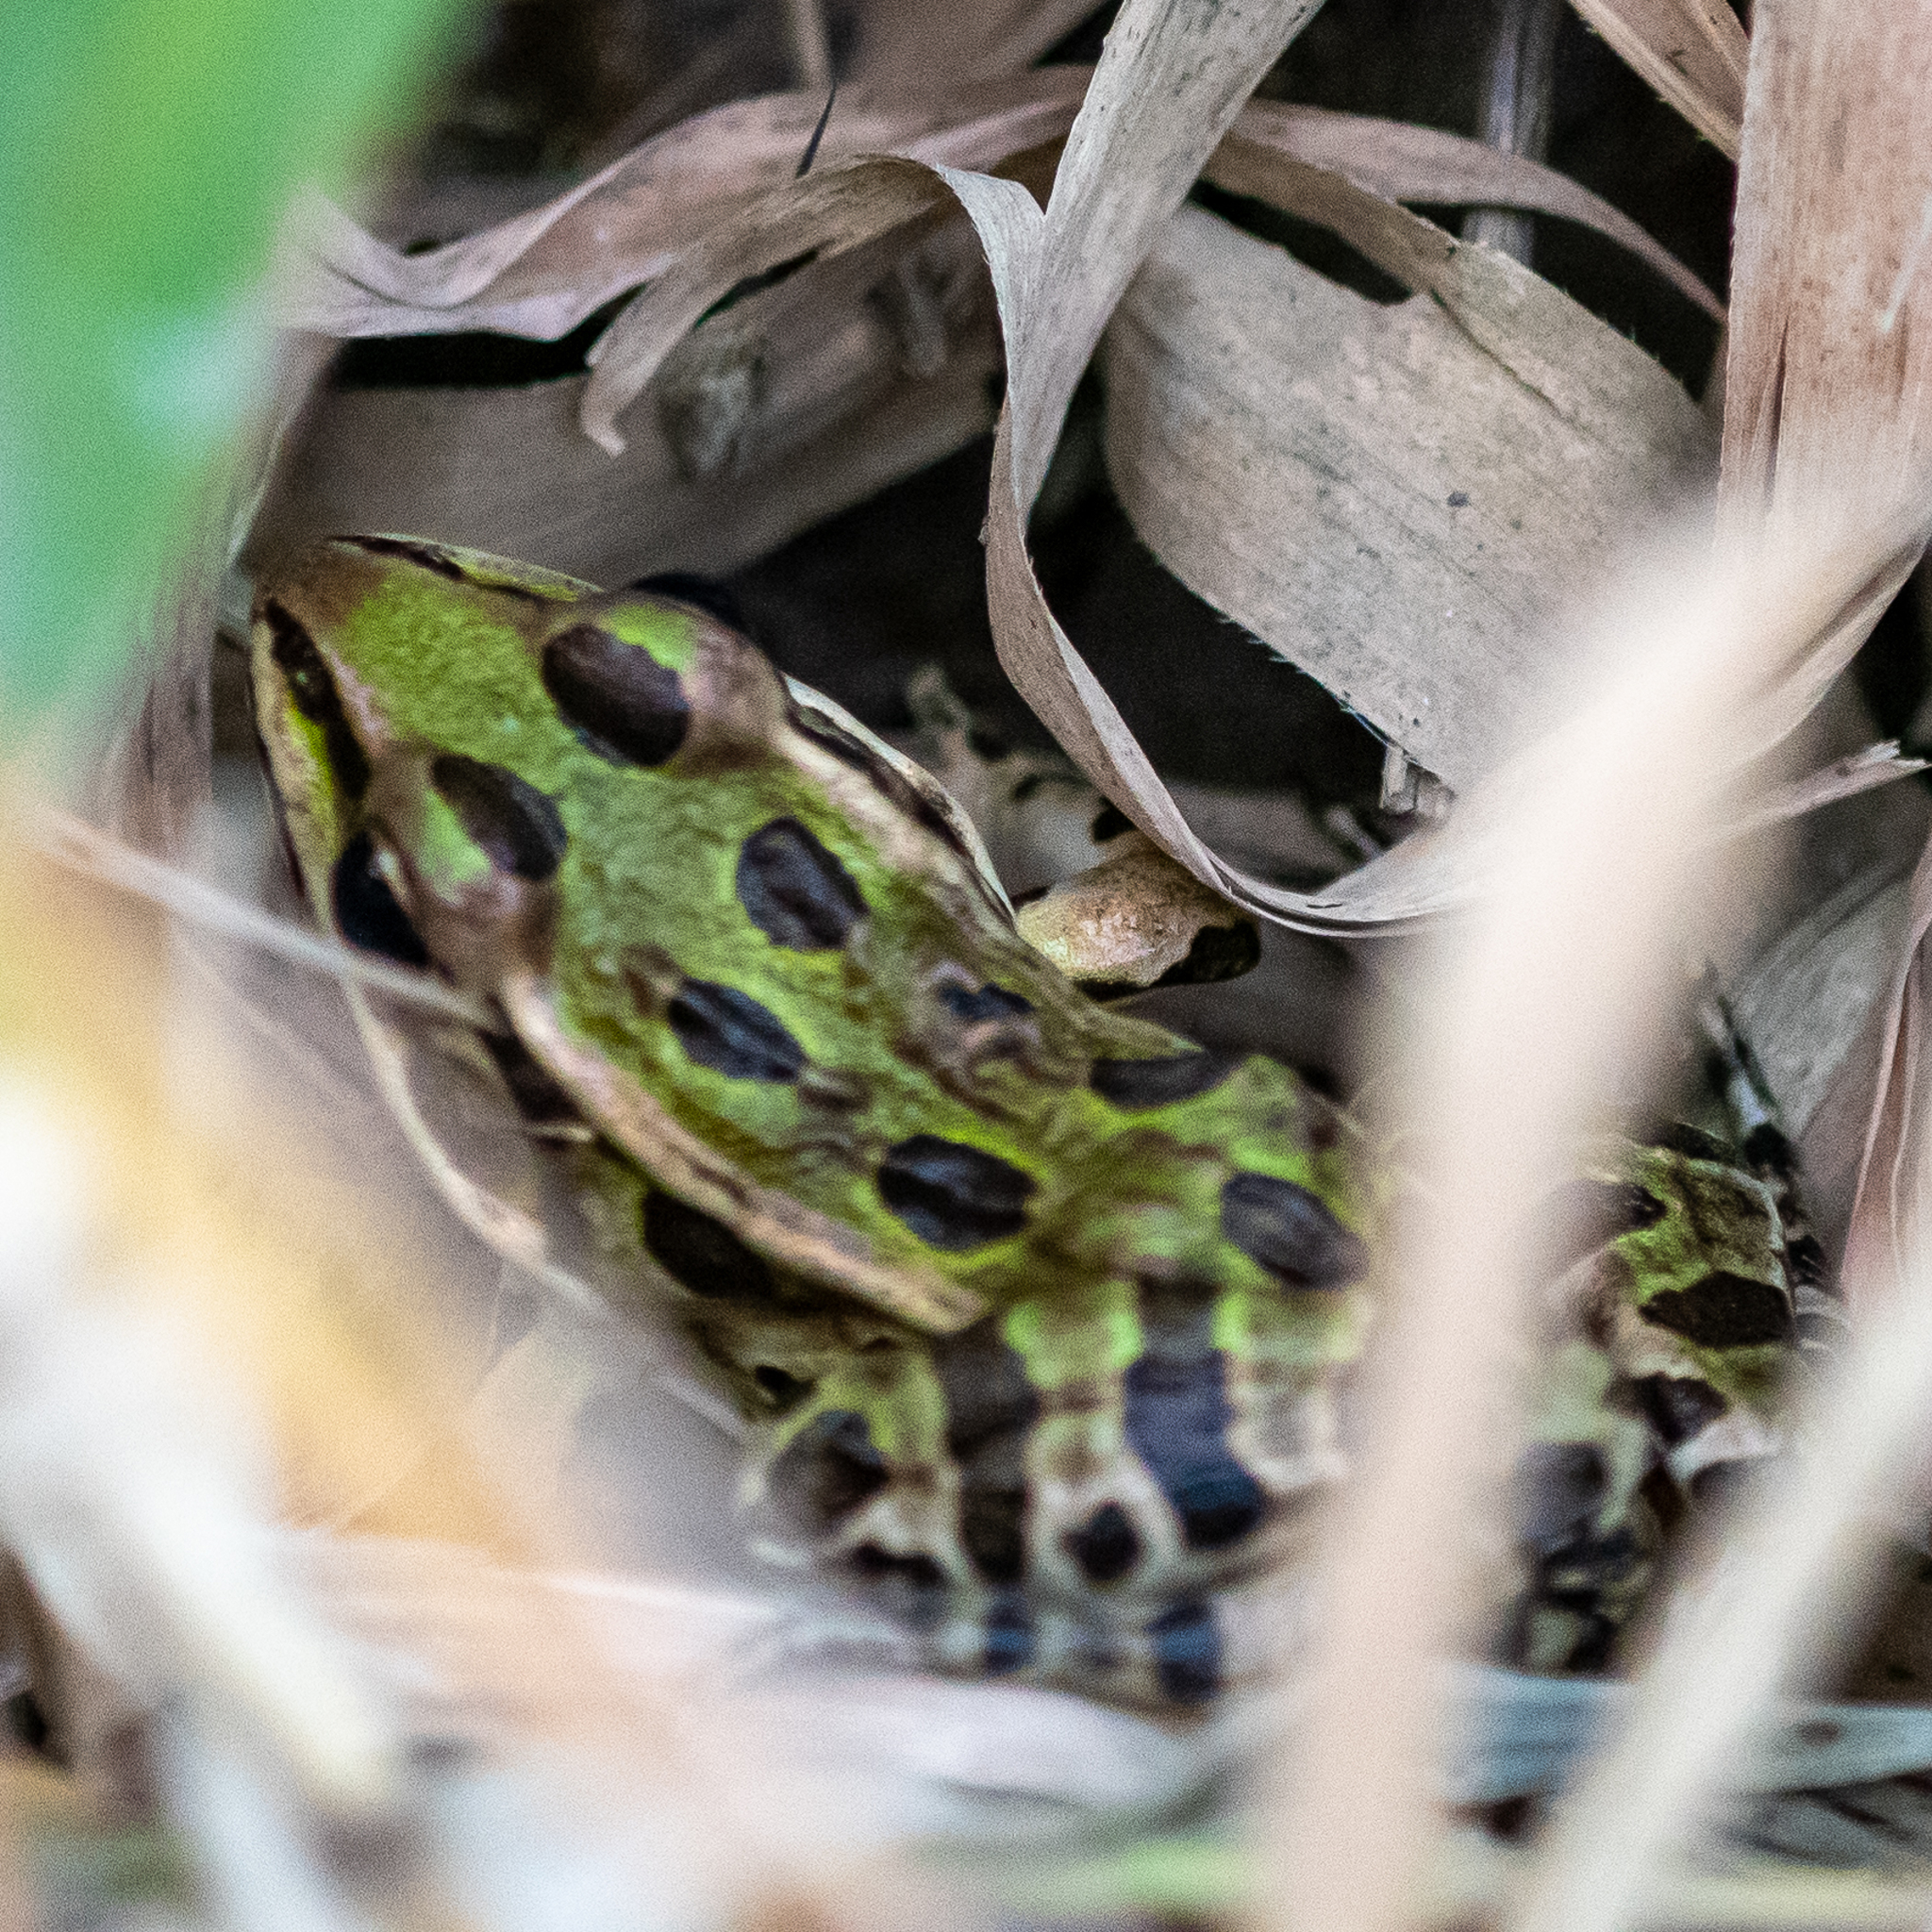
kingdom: Animalia
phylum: Chordata
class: Amphibia
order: Anura
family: Ranidae
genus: Lithobates
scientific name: Lithobates pipiens
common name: Northern leopard frog
